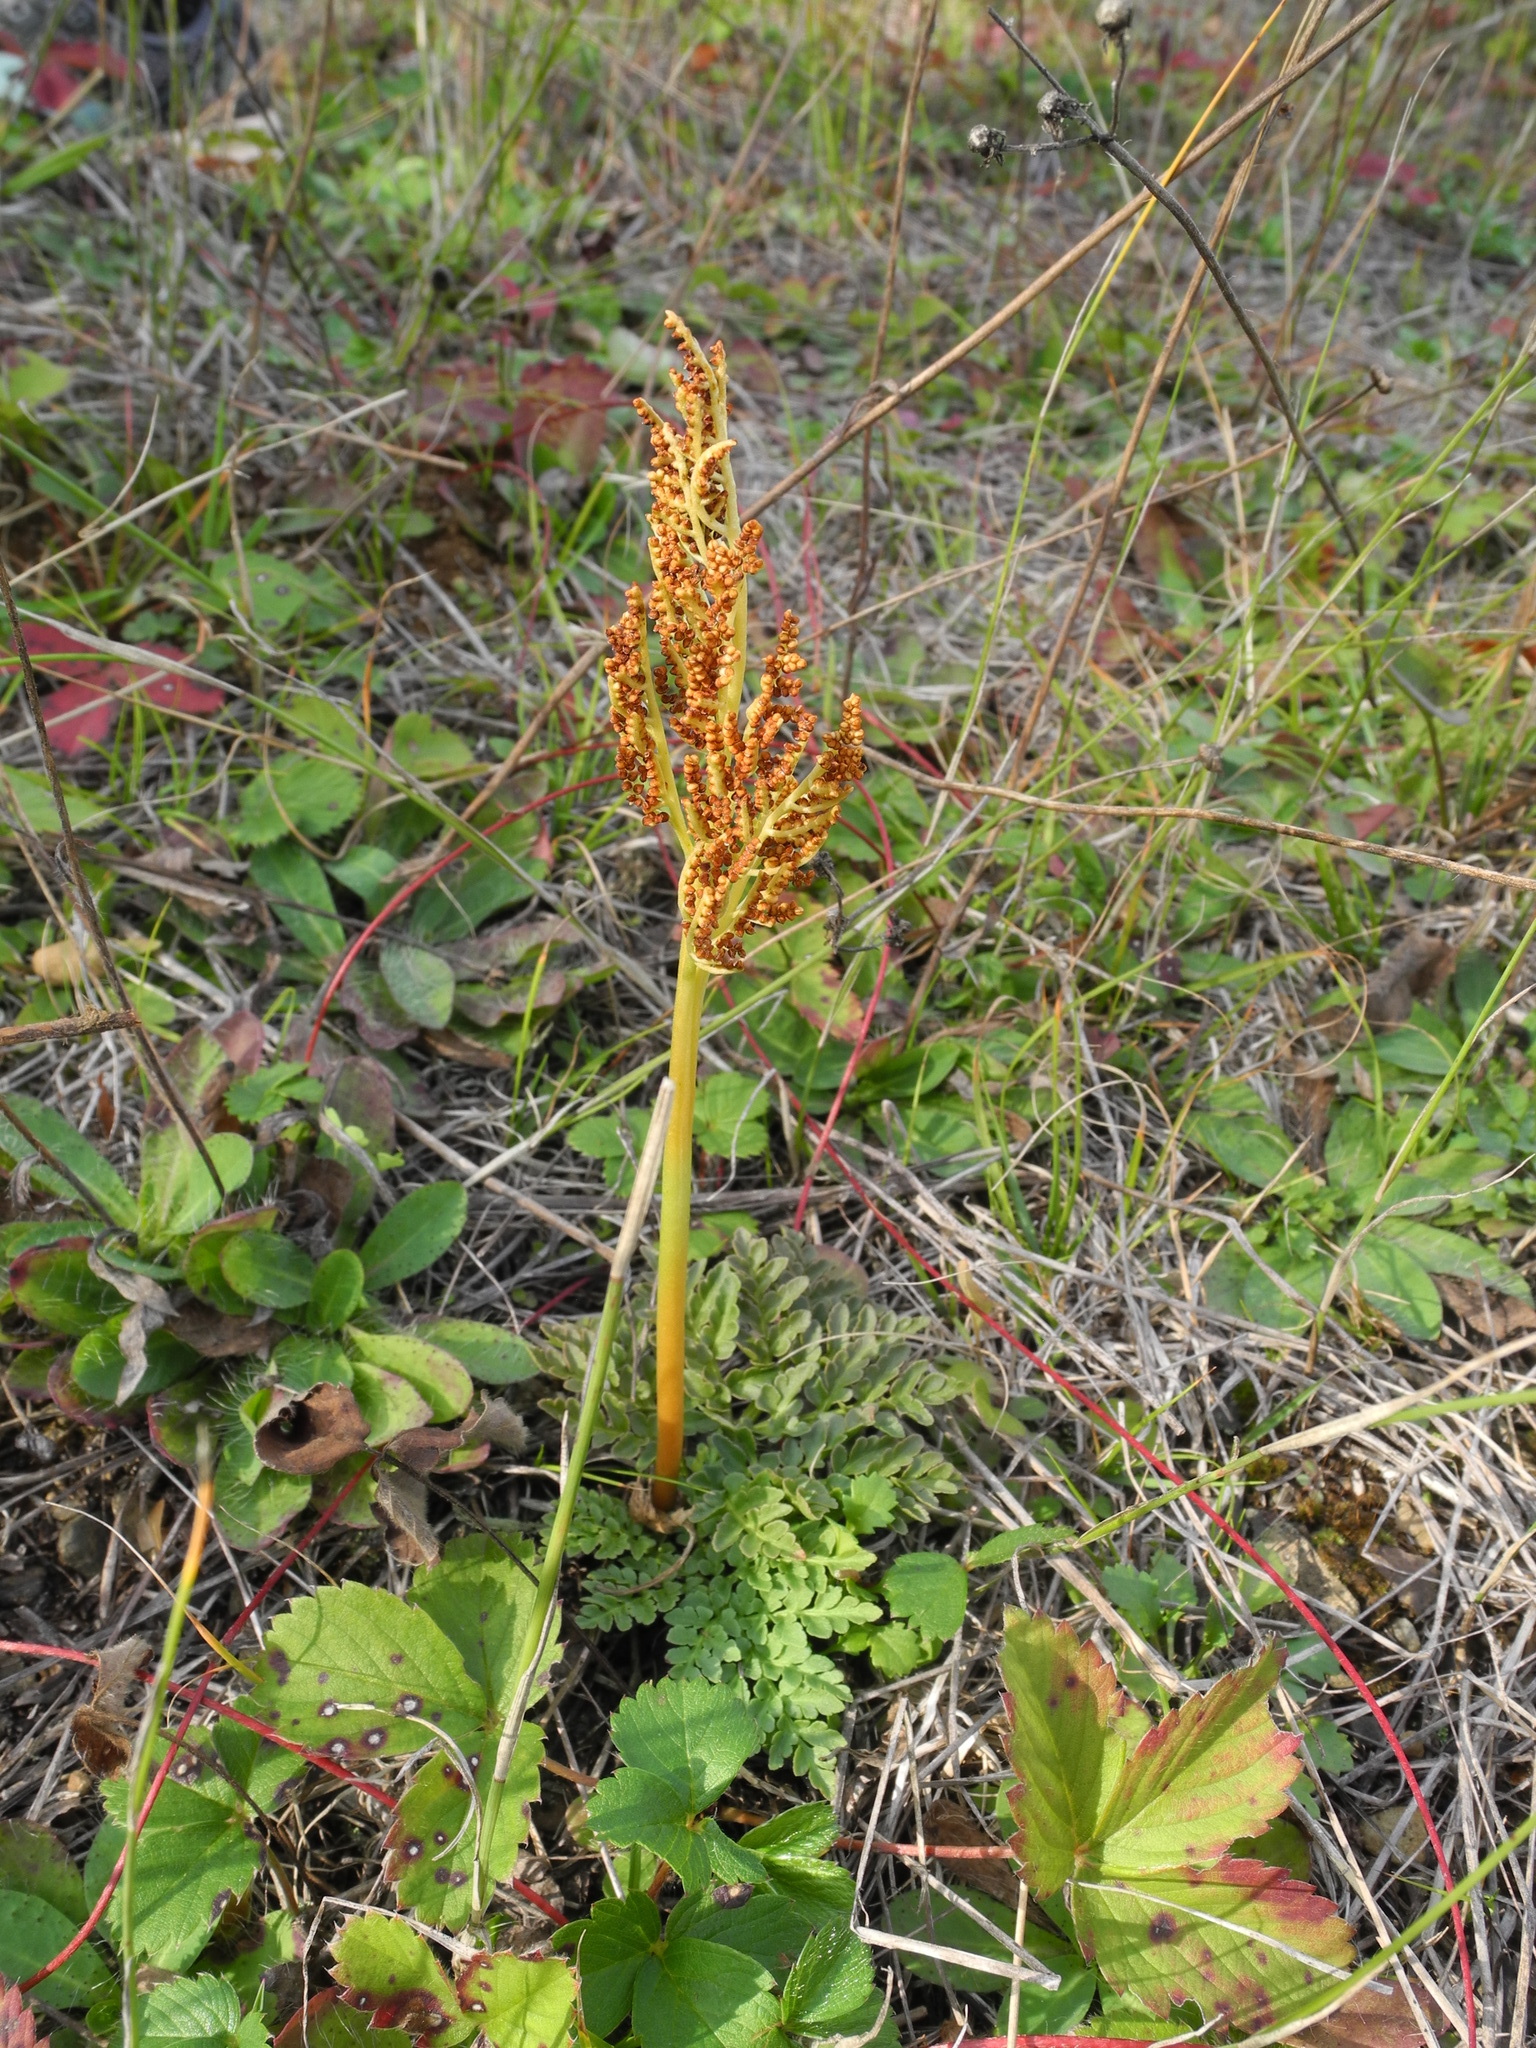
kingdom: Plantae
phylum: Tracheophyta
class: Polypodiopsida
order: Ophioglossales
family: Ophioglossaceae
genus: Sceptridium
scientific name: Sceptridium multifidum
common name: Leathery grape fern
